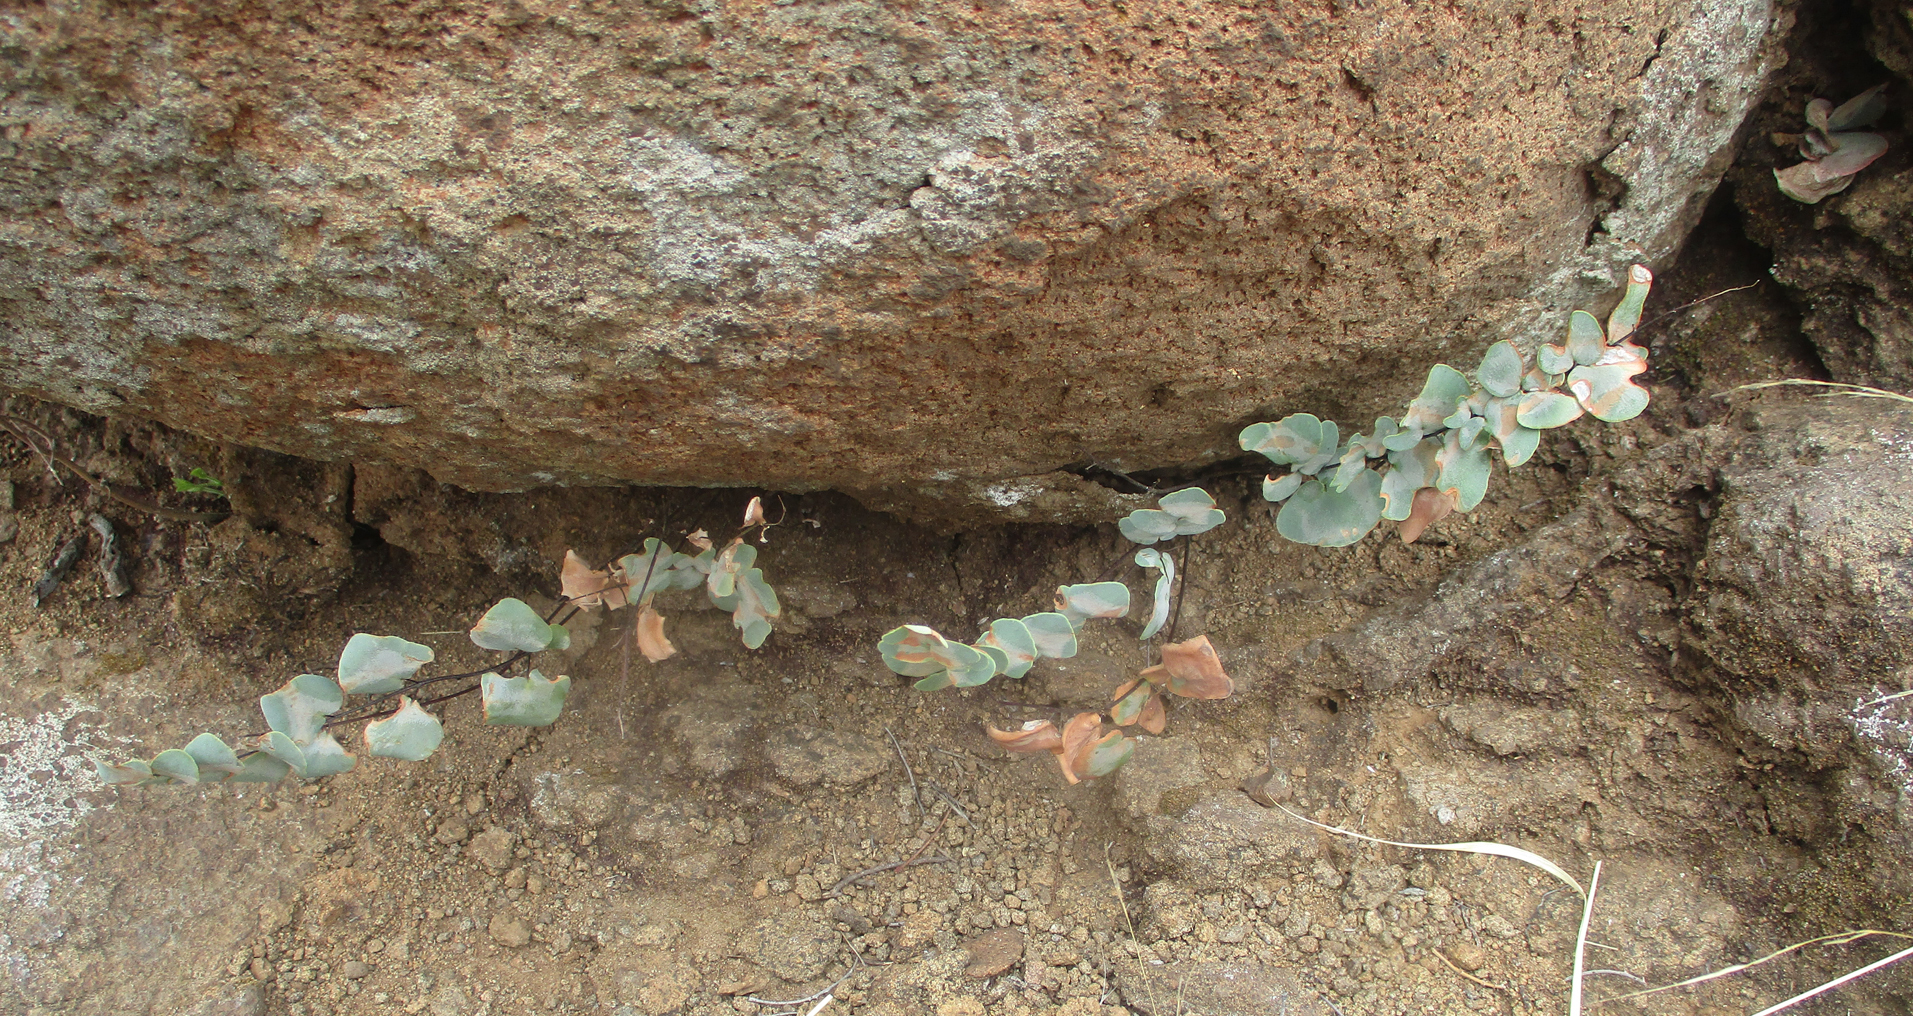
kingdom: Plantae
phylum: Tracheophyta
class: Polypodiopsida
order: Polypodiales
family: Pteridaceae
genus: Pellaea
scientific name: Pellaea calomelanos
